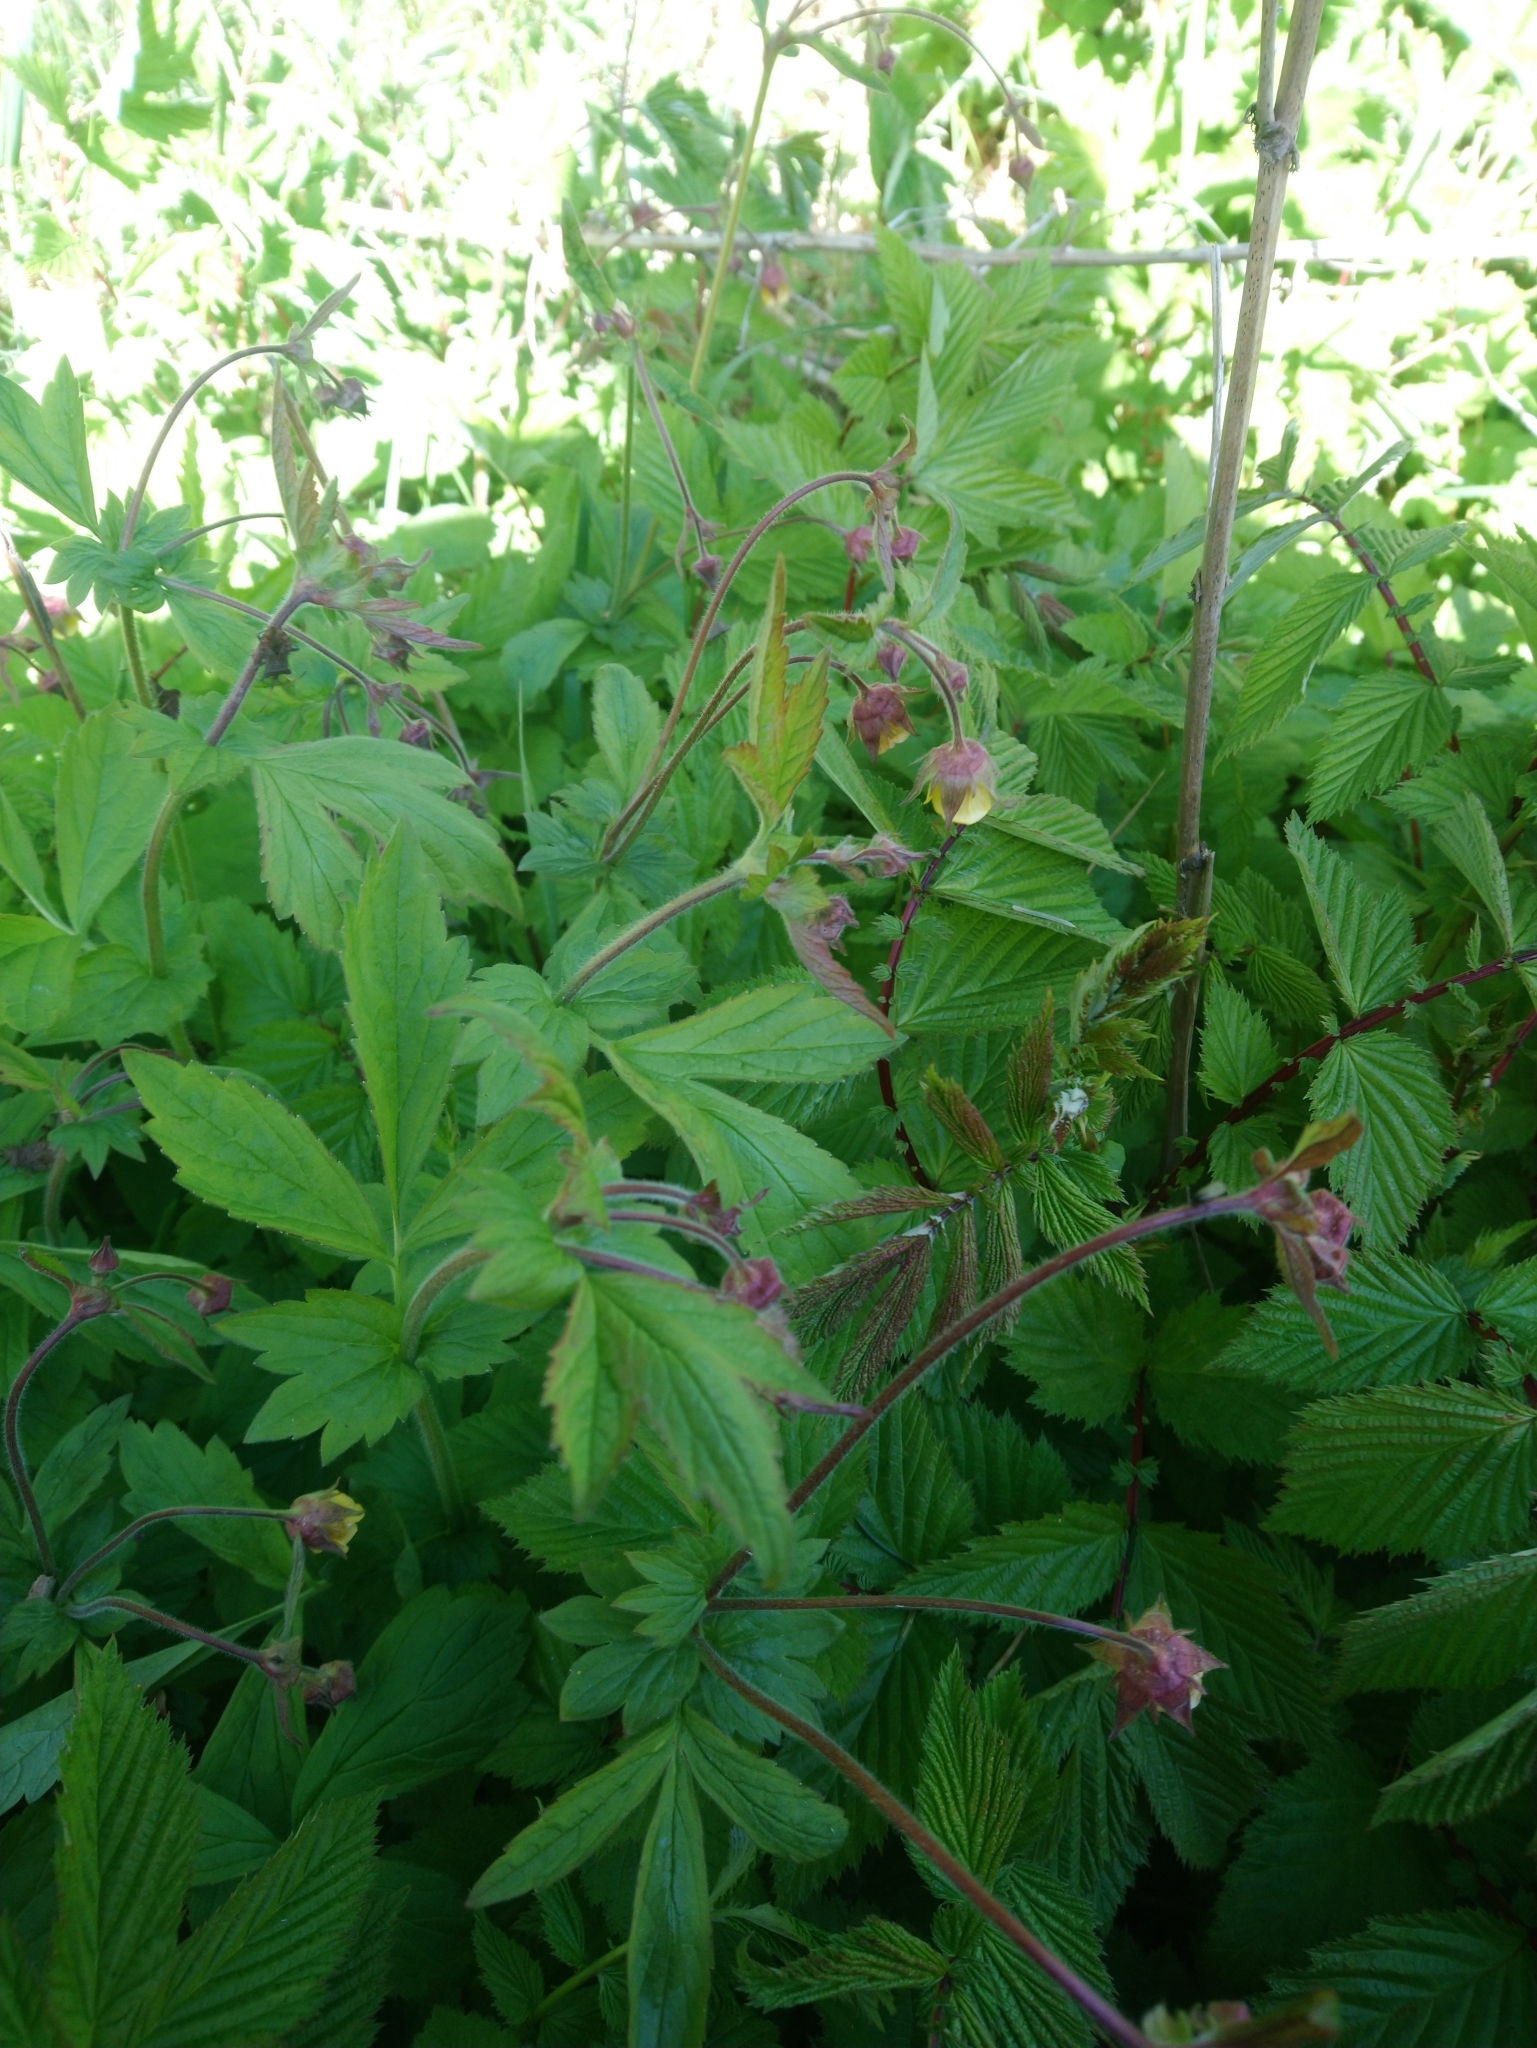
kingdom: Plantae
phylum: Tracheophyta
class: Magnoliopsida
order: Rosales
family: Rosaceae
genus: Geum
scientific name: Geum rivale
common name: Water avens
